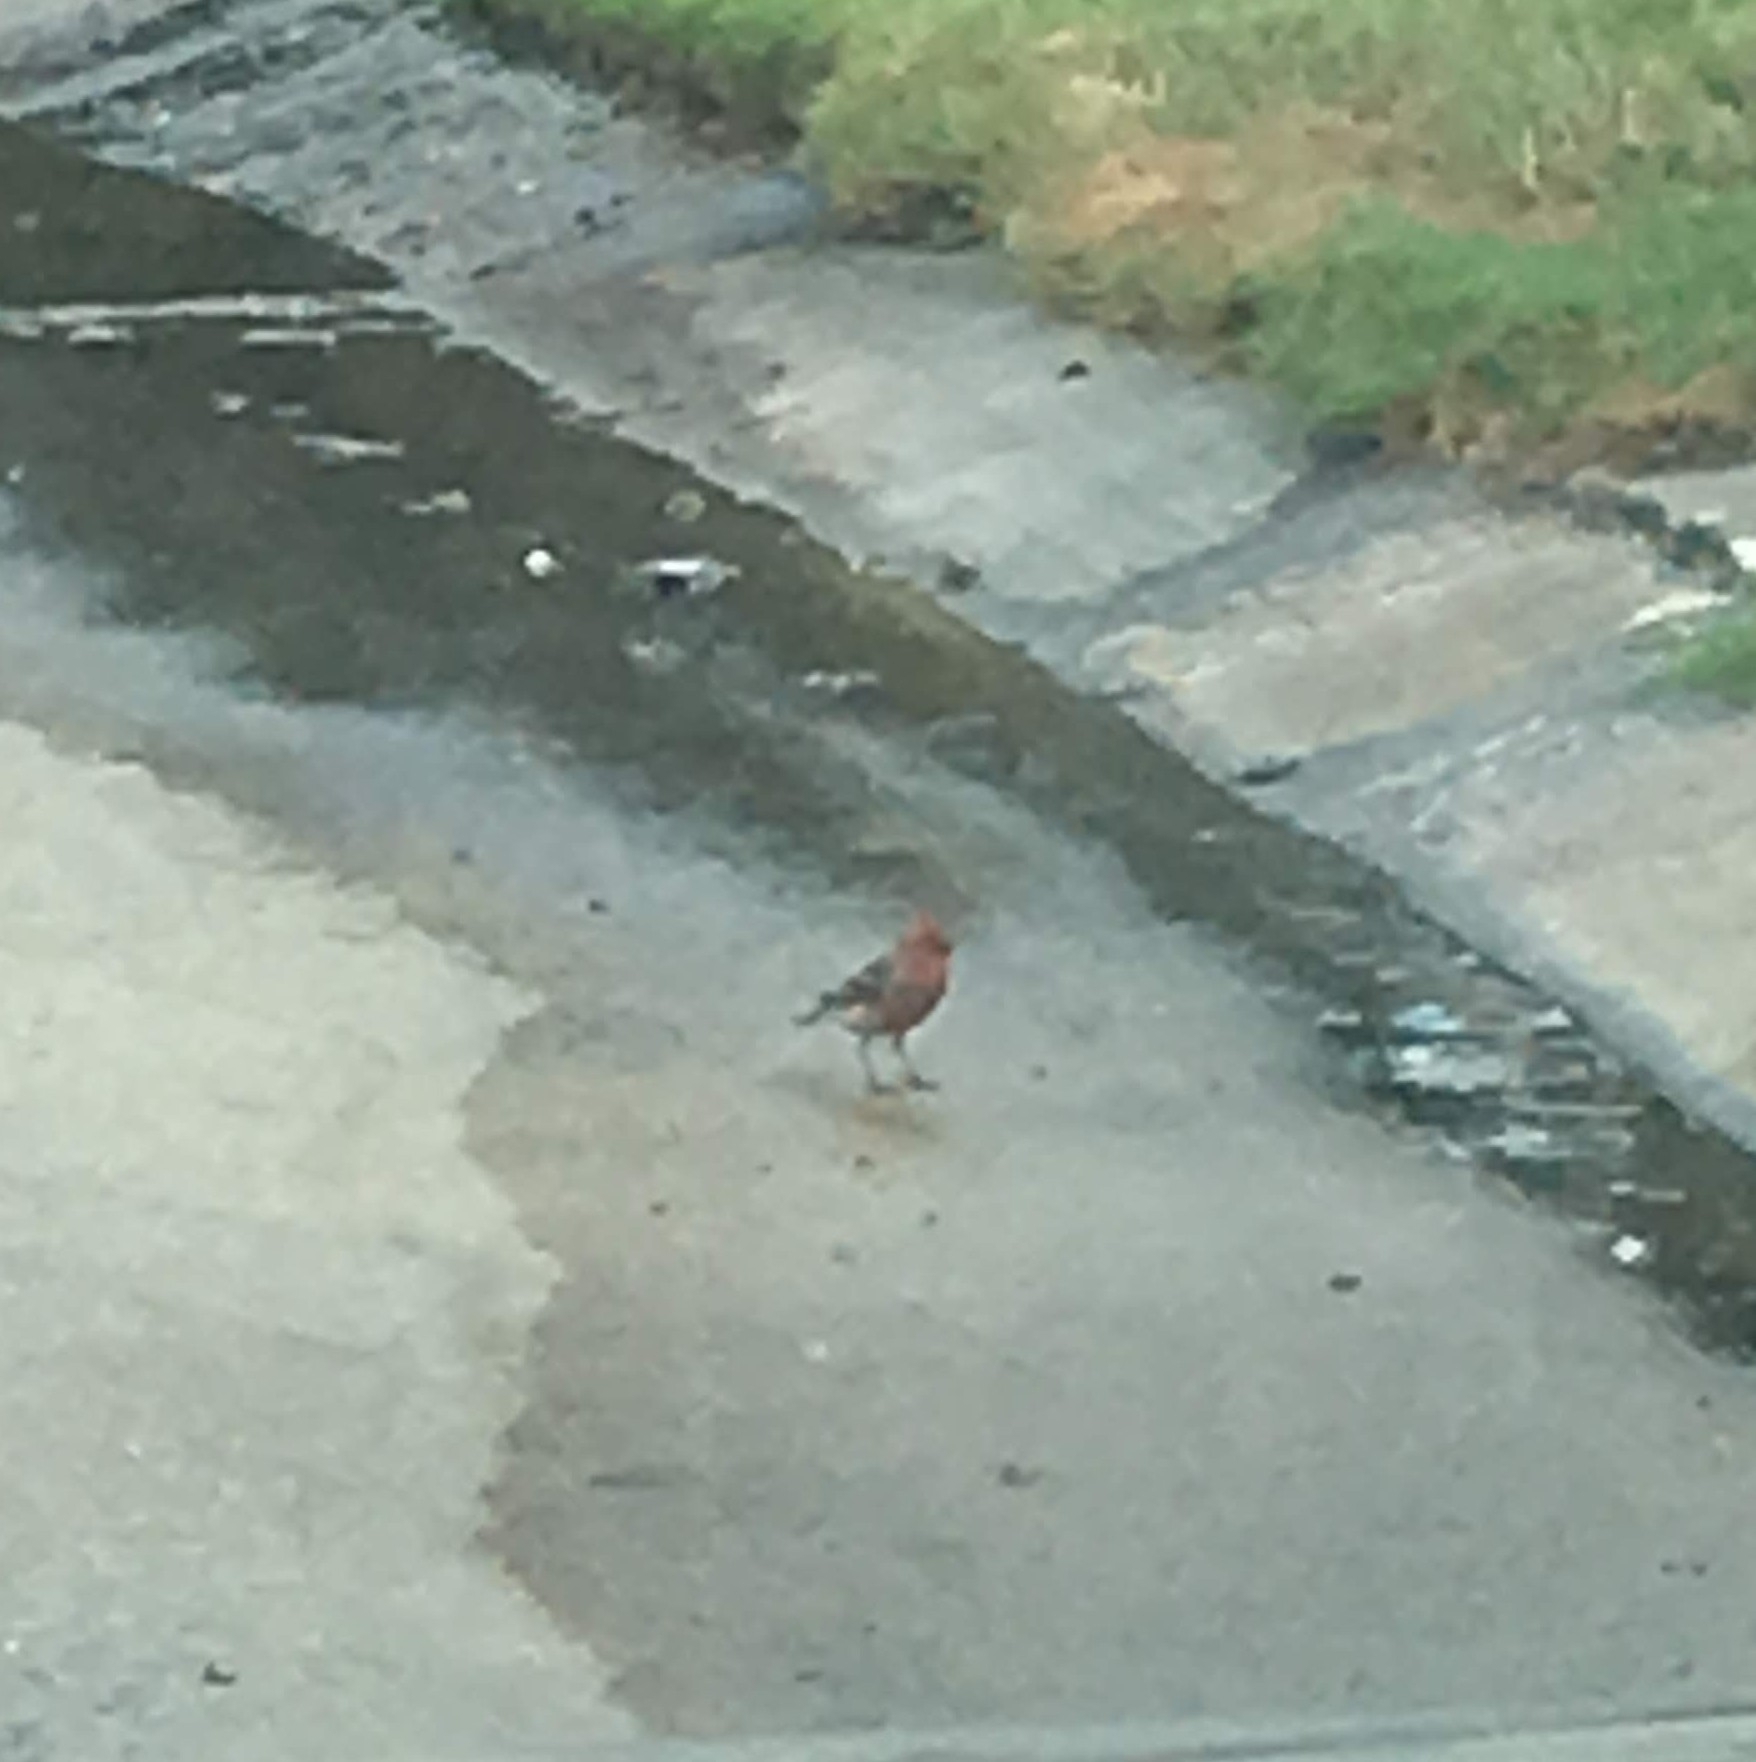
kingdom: Animalia
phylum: Chordata
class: Aves
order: Passeriformes
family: Fringillidae
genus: Haemorhous
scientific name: Haemorhous mexicanus
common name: House finch
